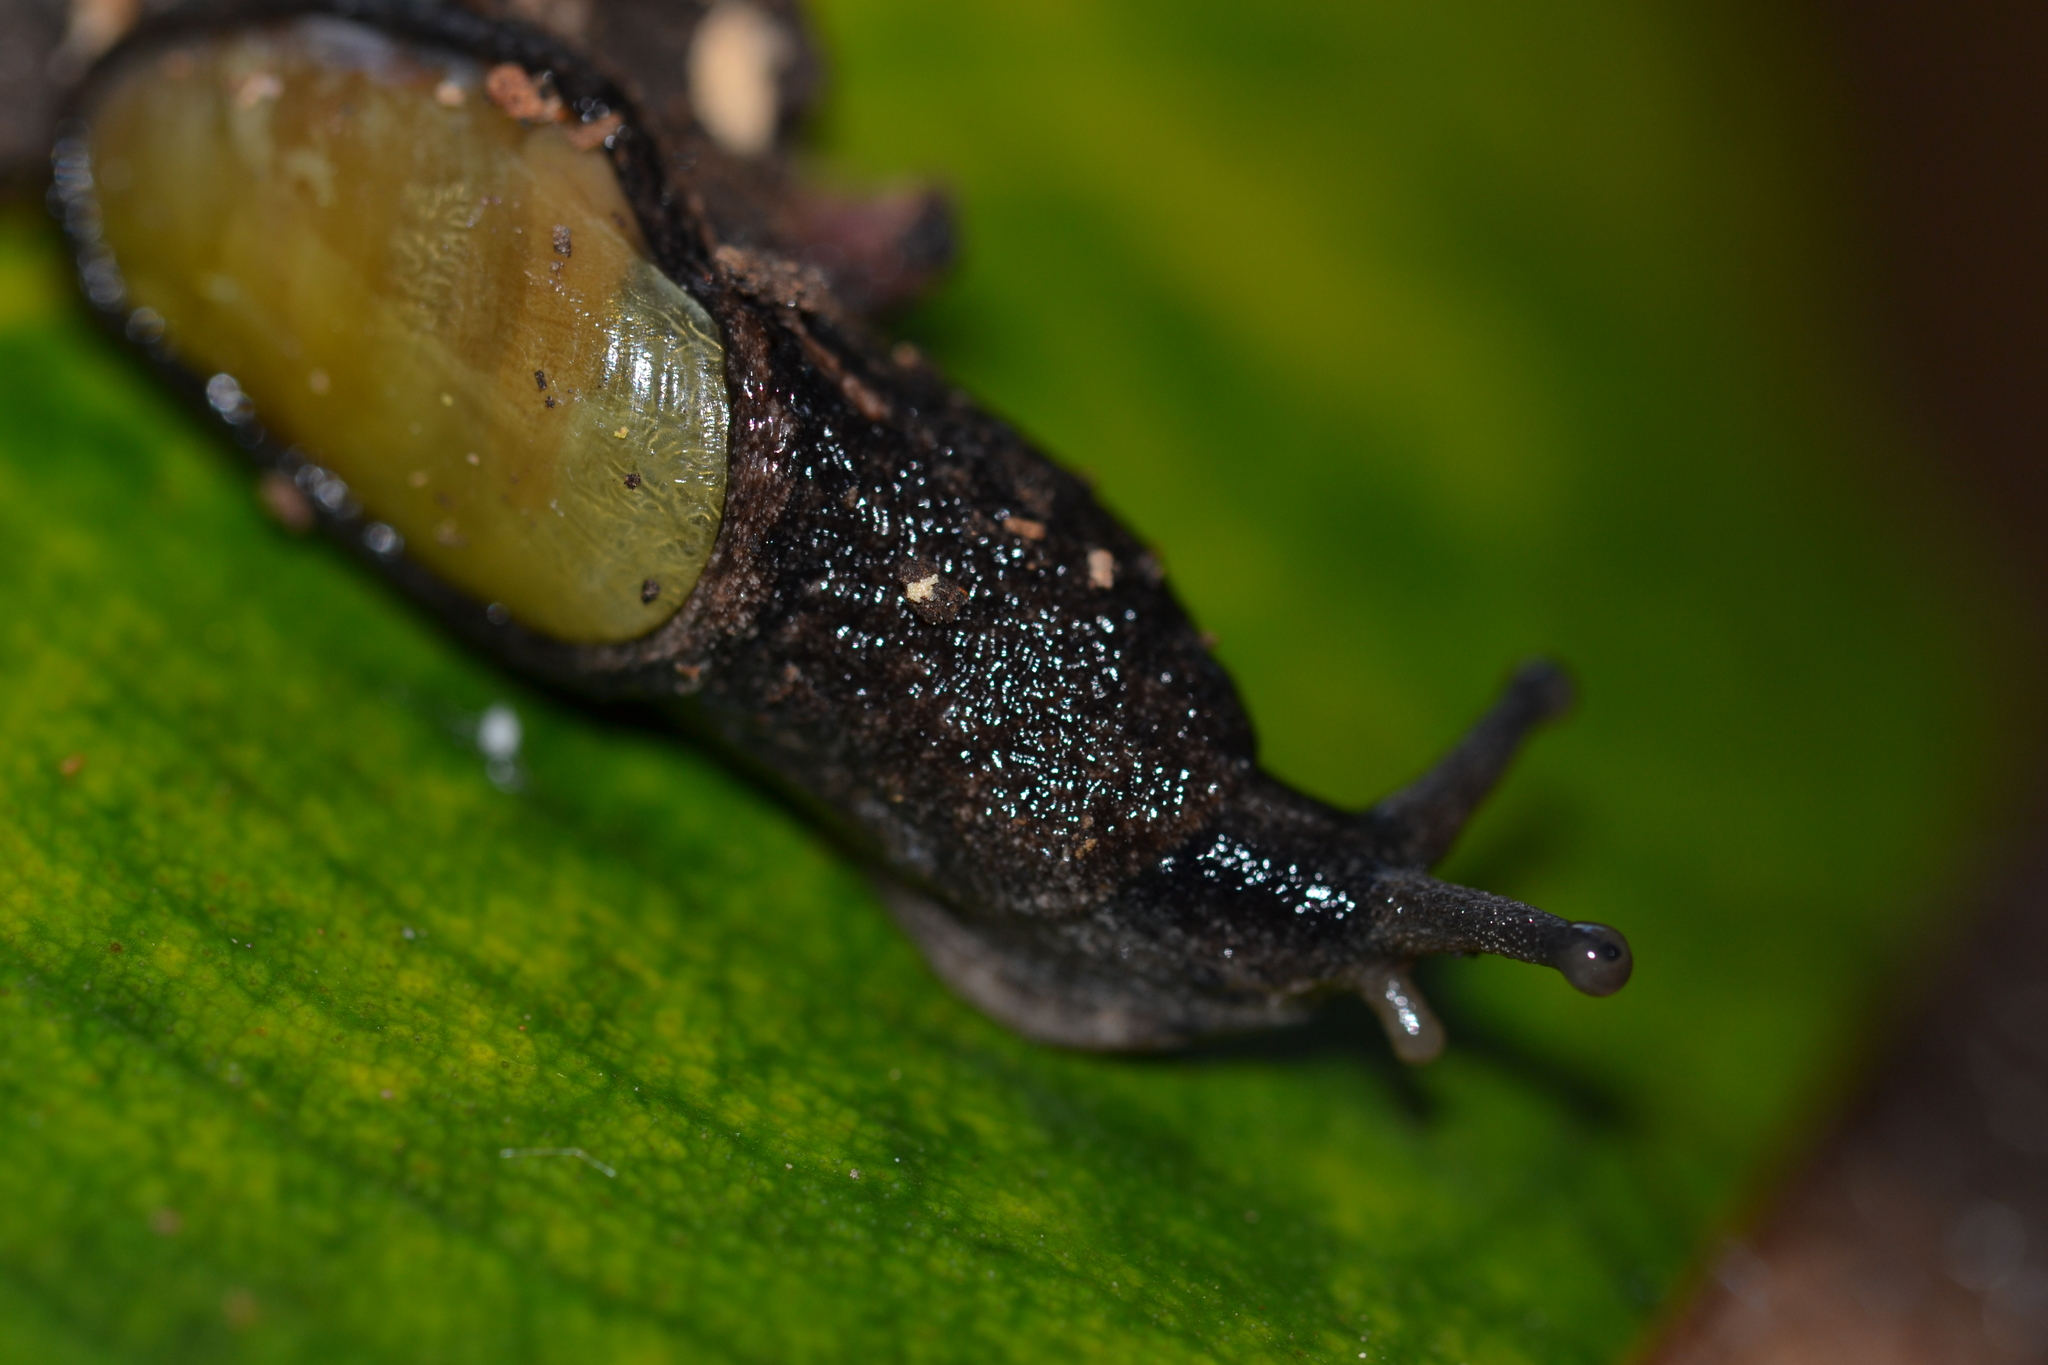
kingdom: Animalia
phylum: Mollusca
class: Gastropoda
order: Stylommatophora
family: Ariophantidae
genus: Parmarion
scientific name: Parmarion martensi
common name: Semi-slug
